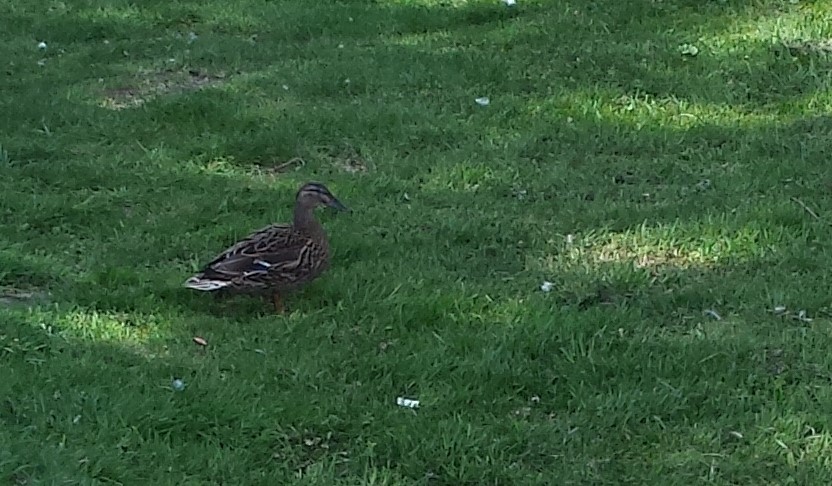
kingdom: Animalia
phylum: Chordata
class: Aves
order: Anseriformes
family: Anatidae
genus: Anas
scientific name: Anas platyrhynchos
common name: Mallard
